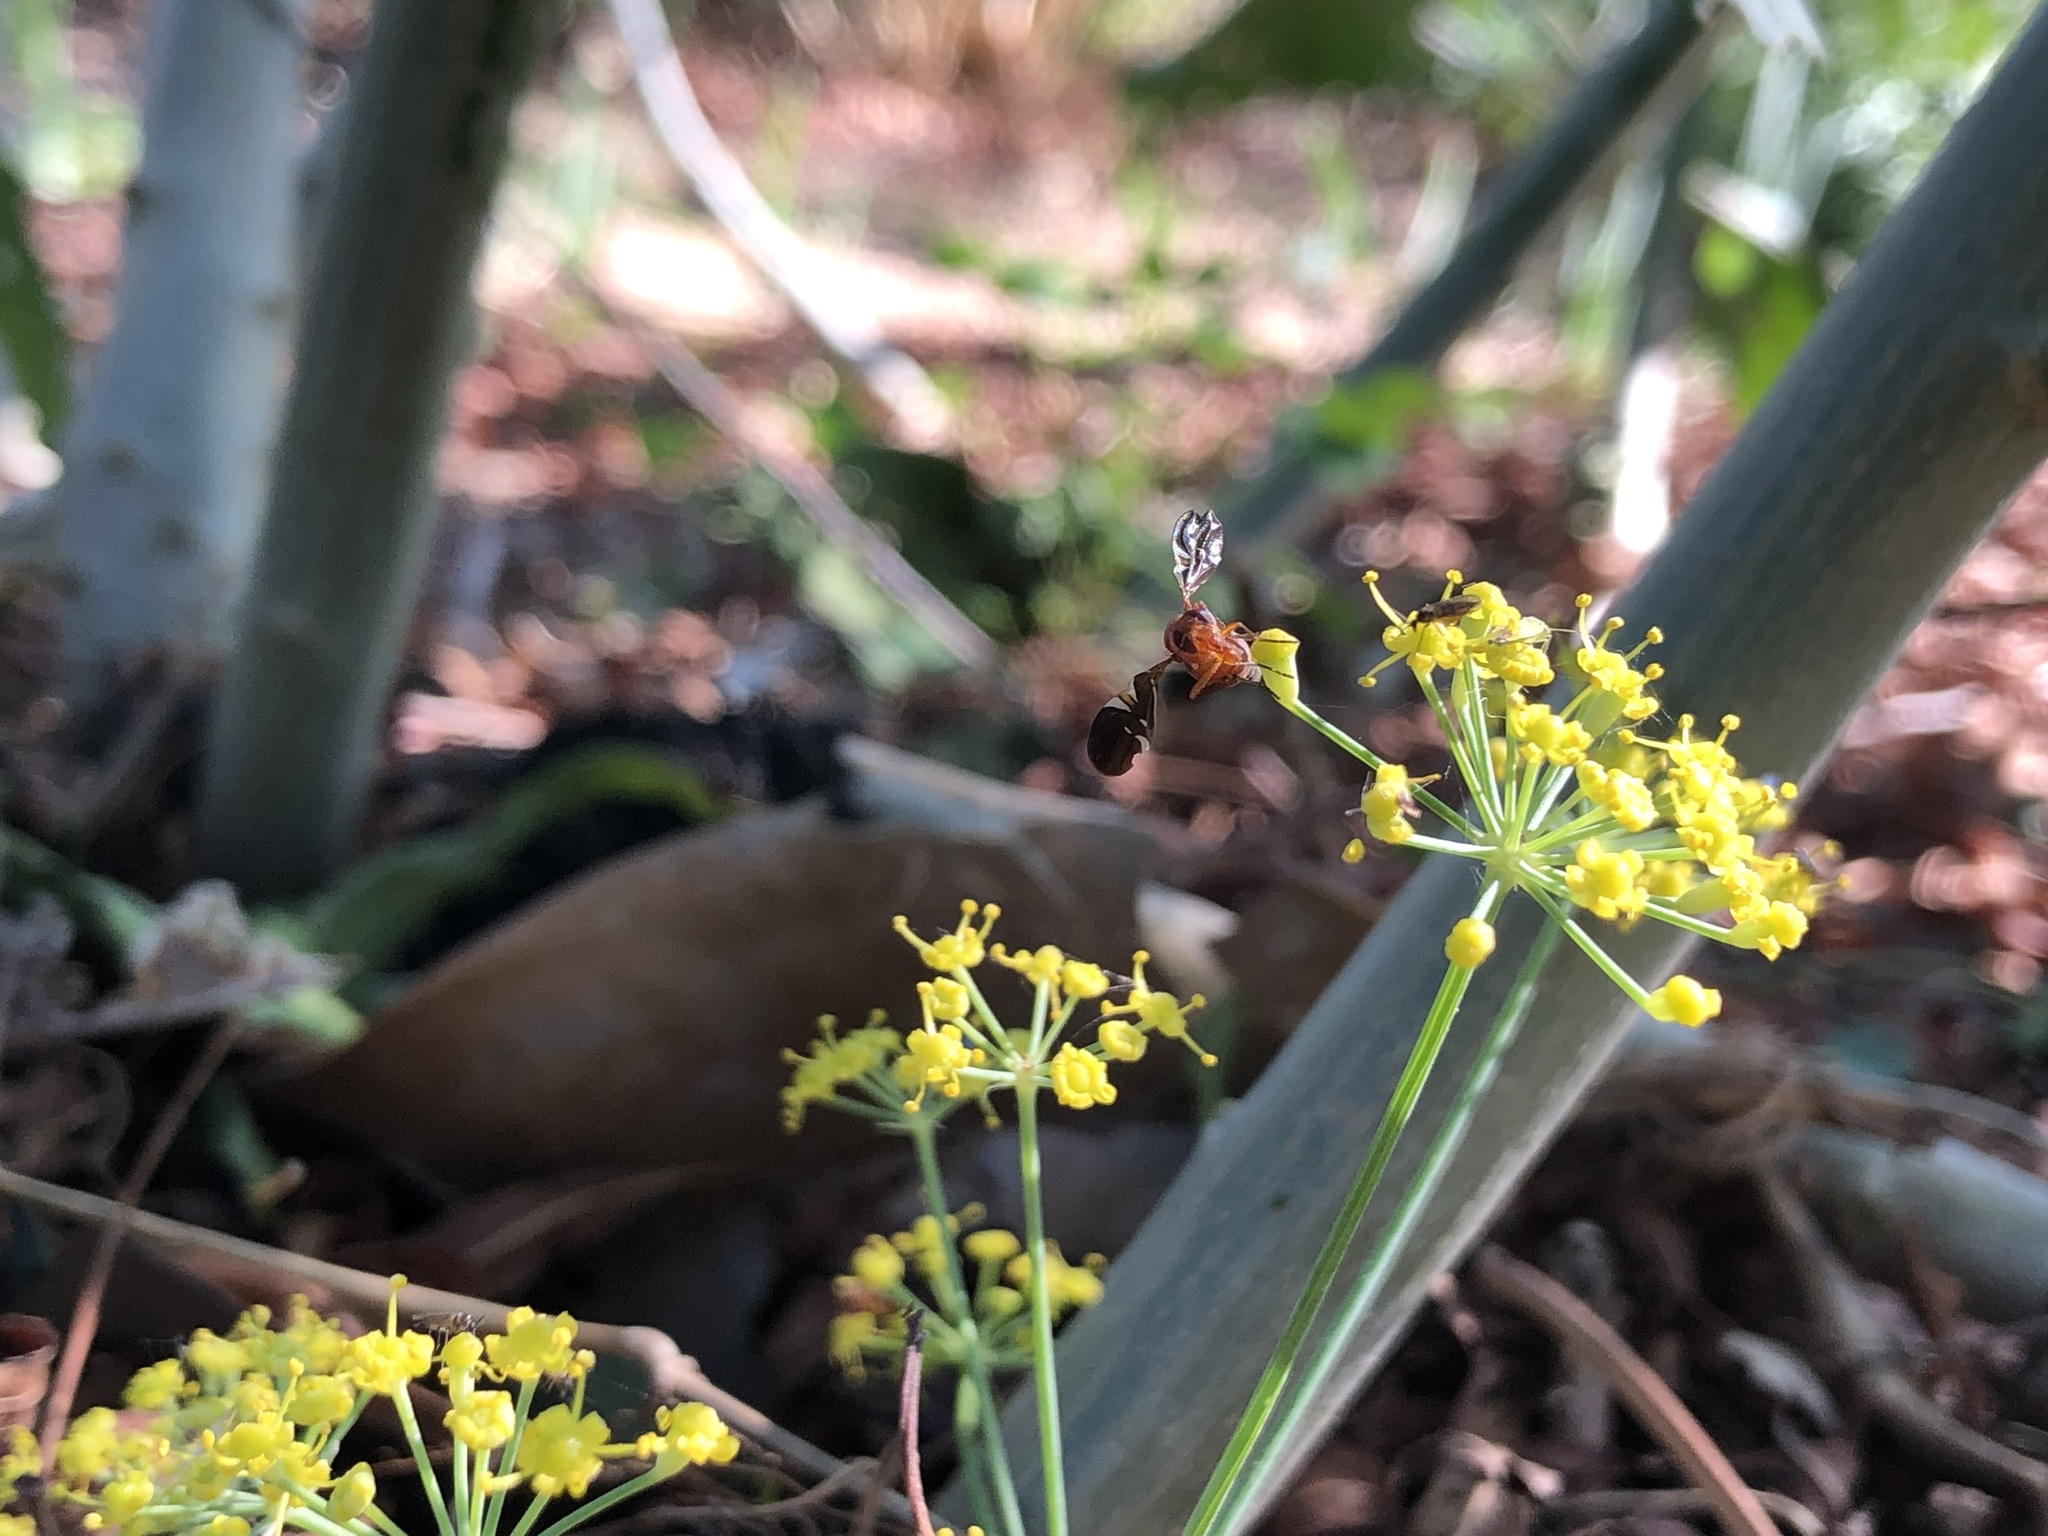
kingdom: Animalia
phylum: Arthropoda
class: Insecta
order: Diptera
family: Ulidiidae
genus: Delphinia
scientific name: Delphinia picta
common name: Common picture-winged fly
